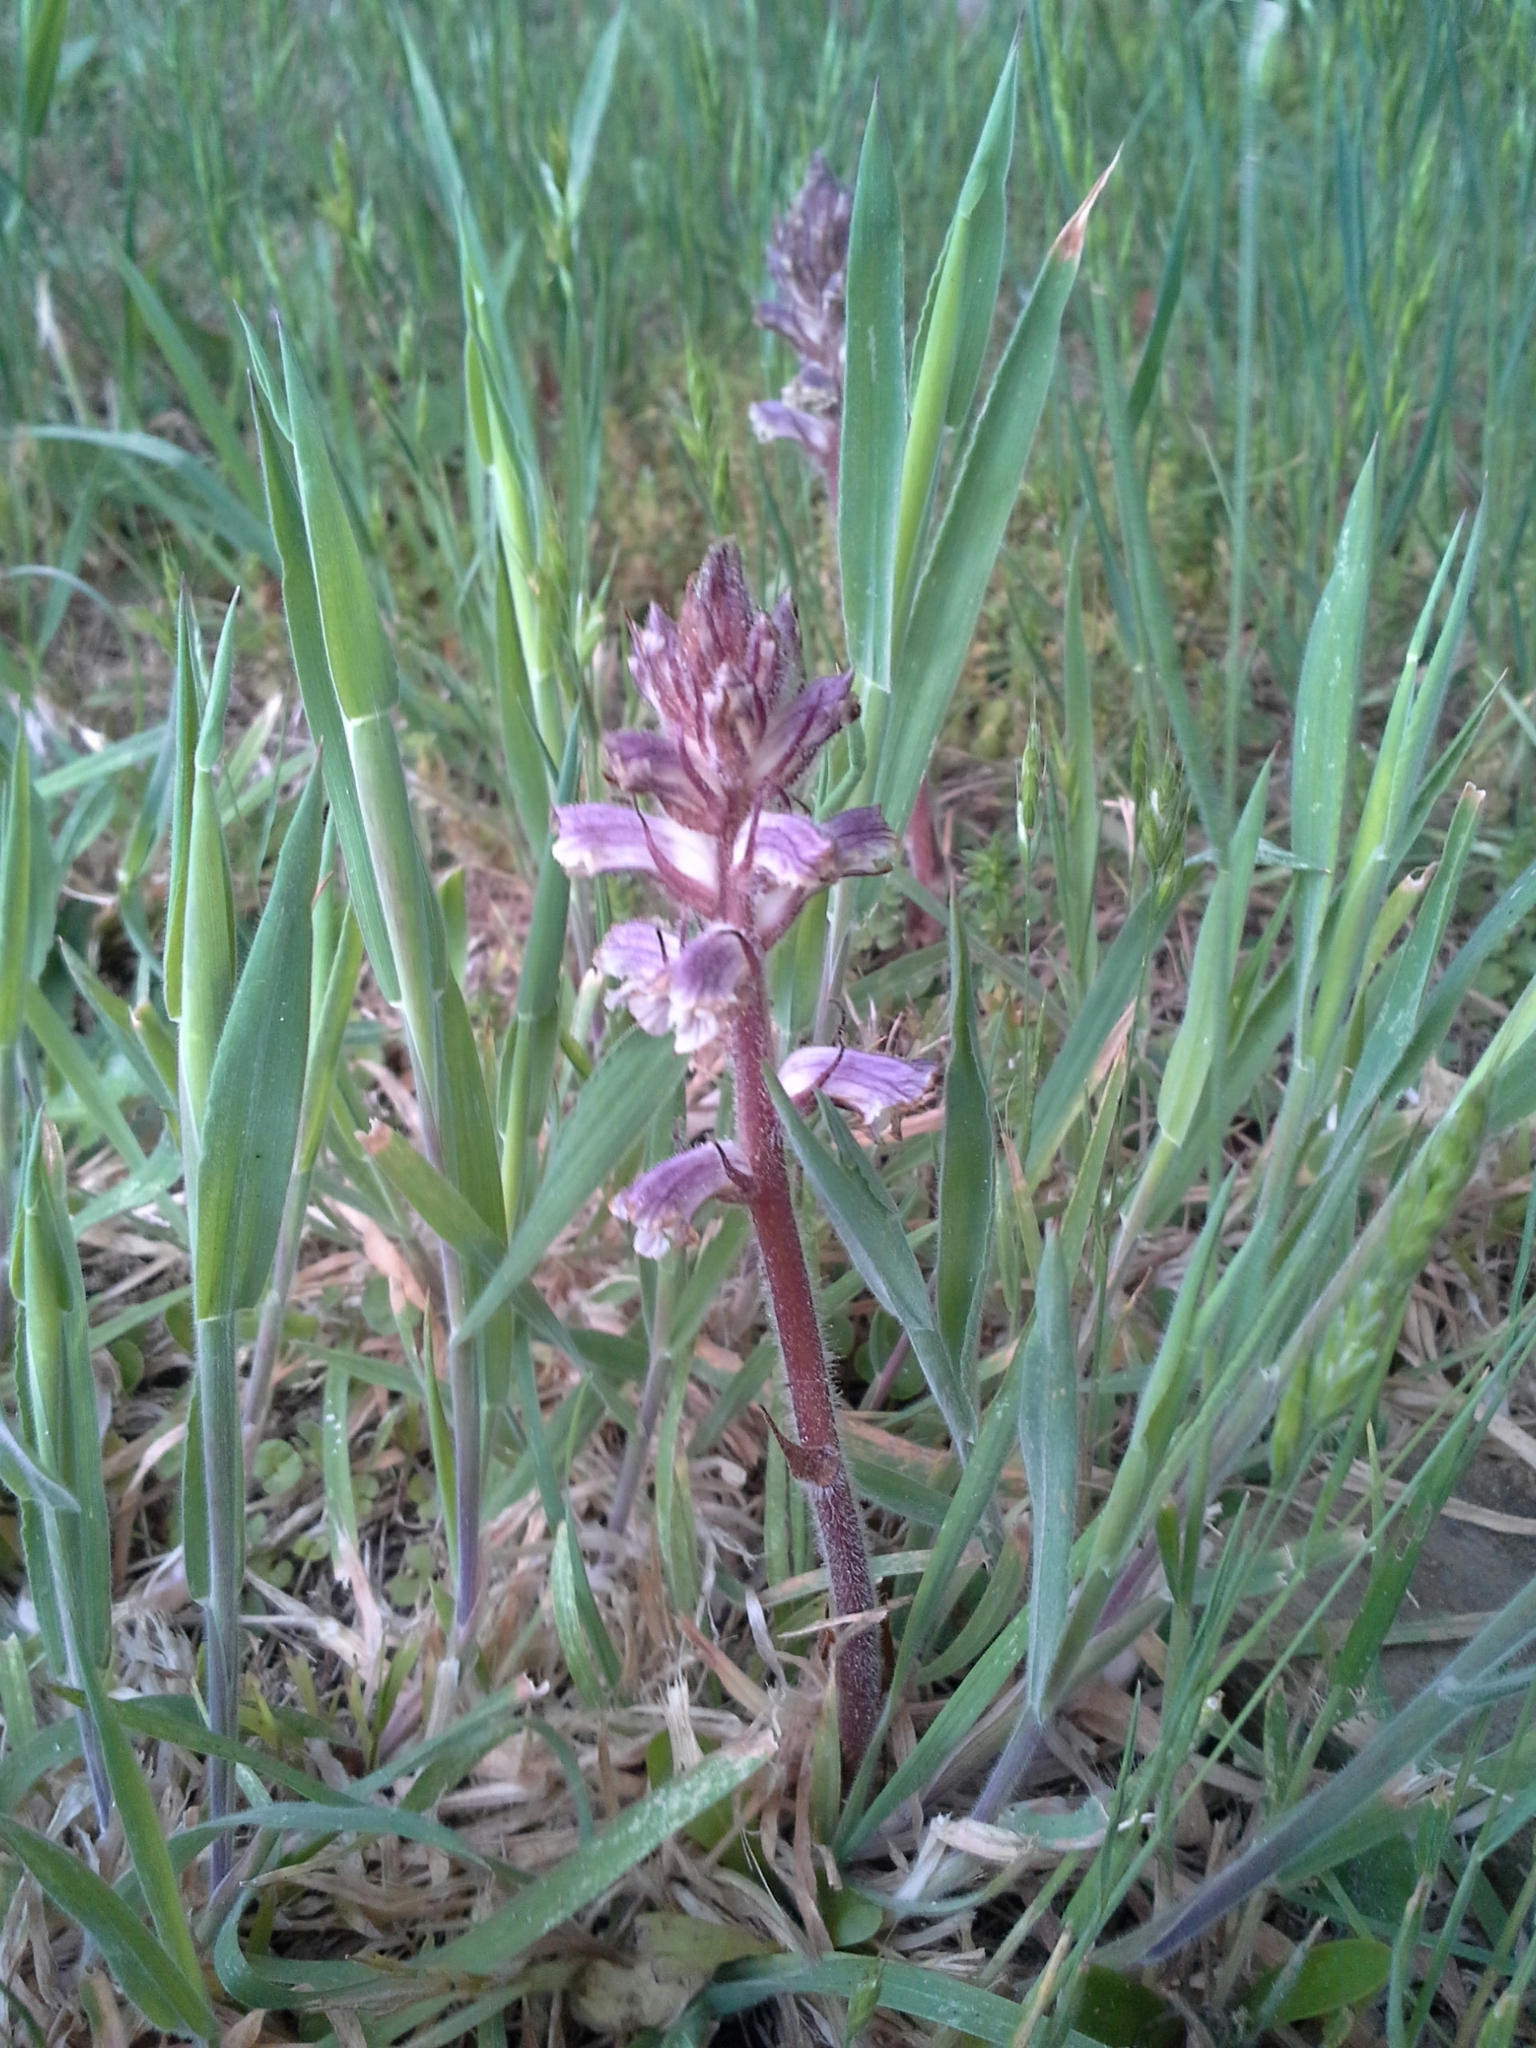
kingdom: Plantae
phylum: Tracheophyta
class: Magnoliopsida
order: Lamiales
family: Orobanchaceae
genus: Orobanche
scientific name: Orobanche minor
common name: Common broomrape
